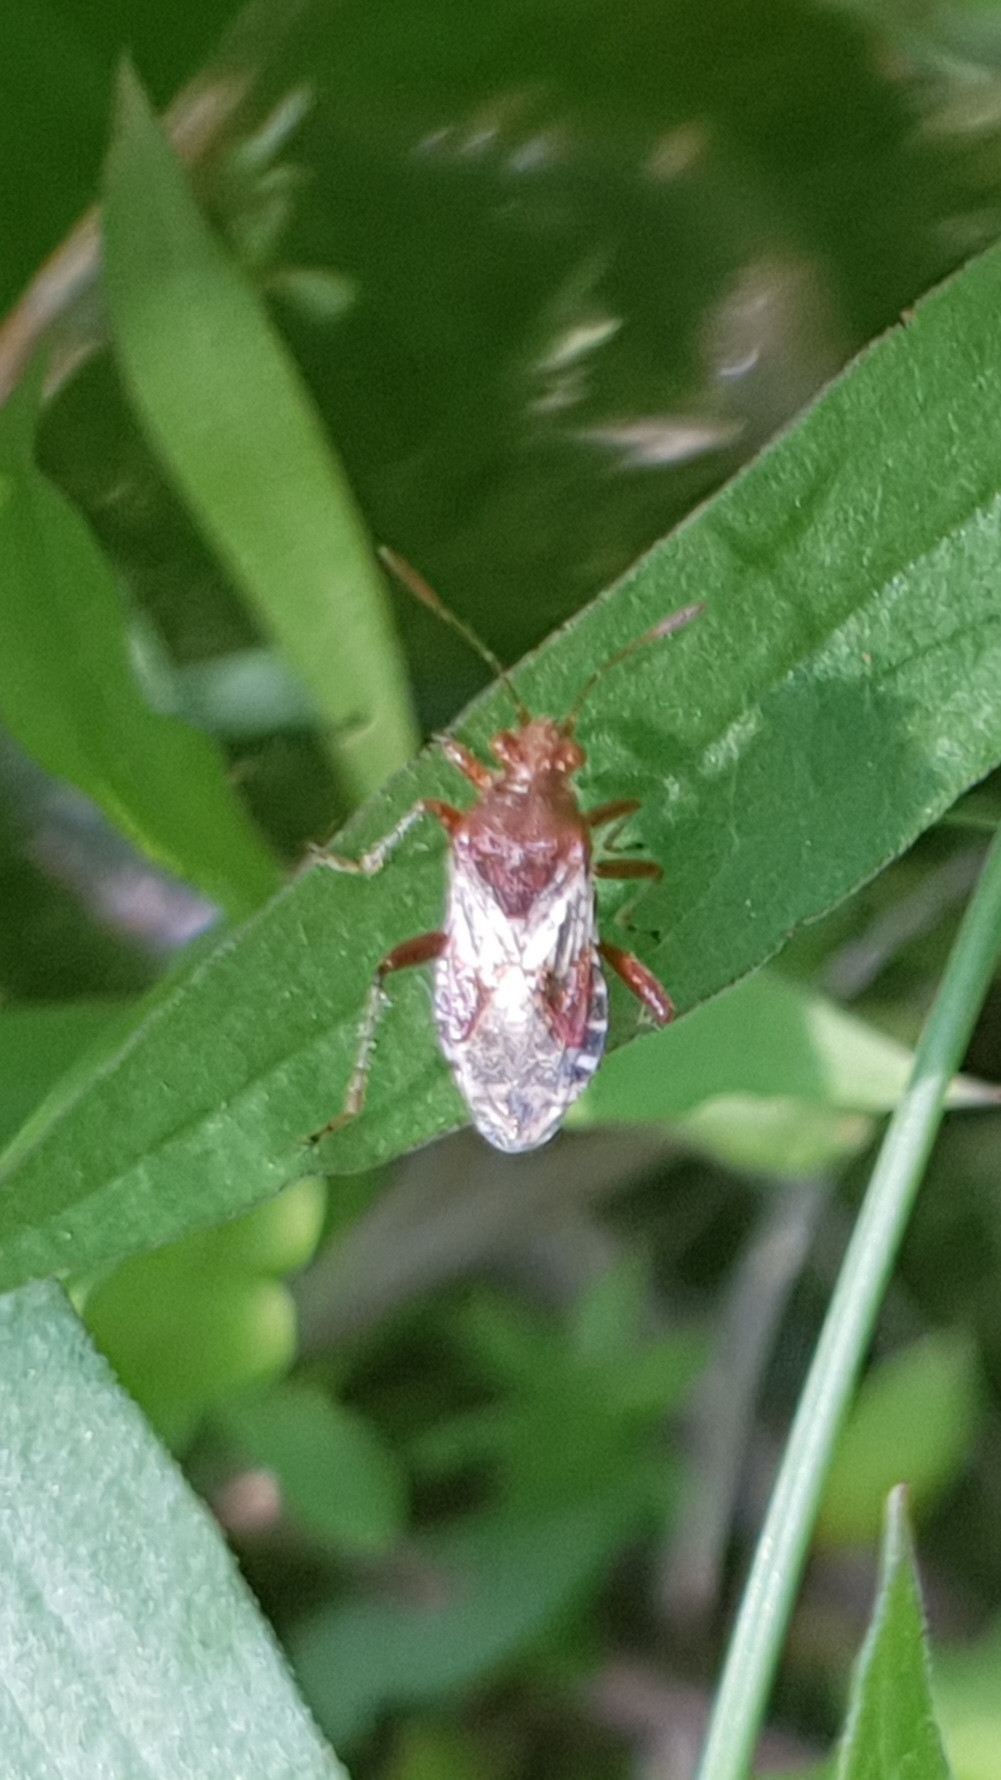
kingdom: Animalia
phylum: Arthropoda
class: Insecta
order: Hemiptera
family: Rhopalidae
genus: Rhopalus
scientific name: Rhopalus subrufus
